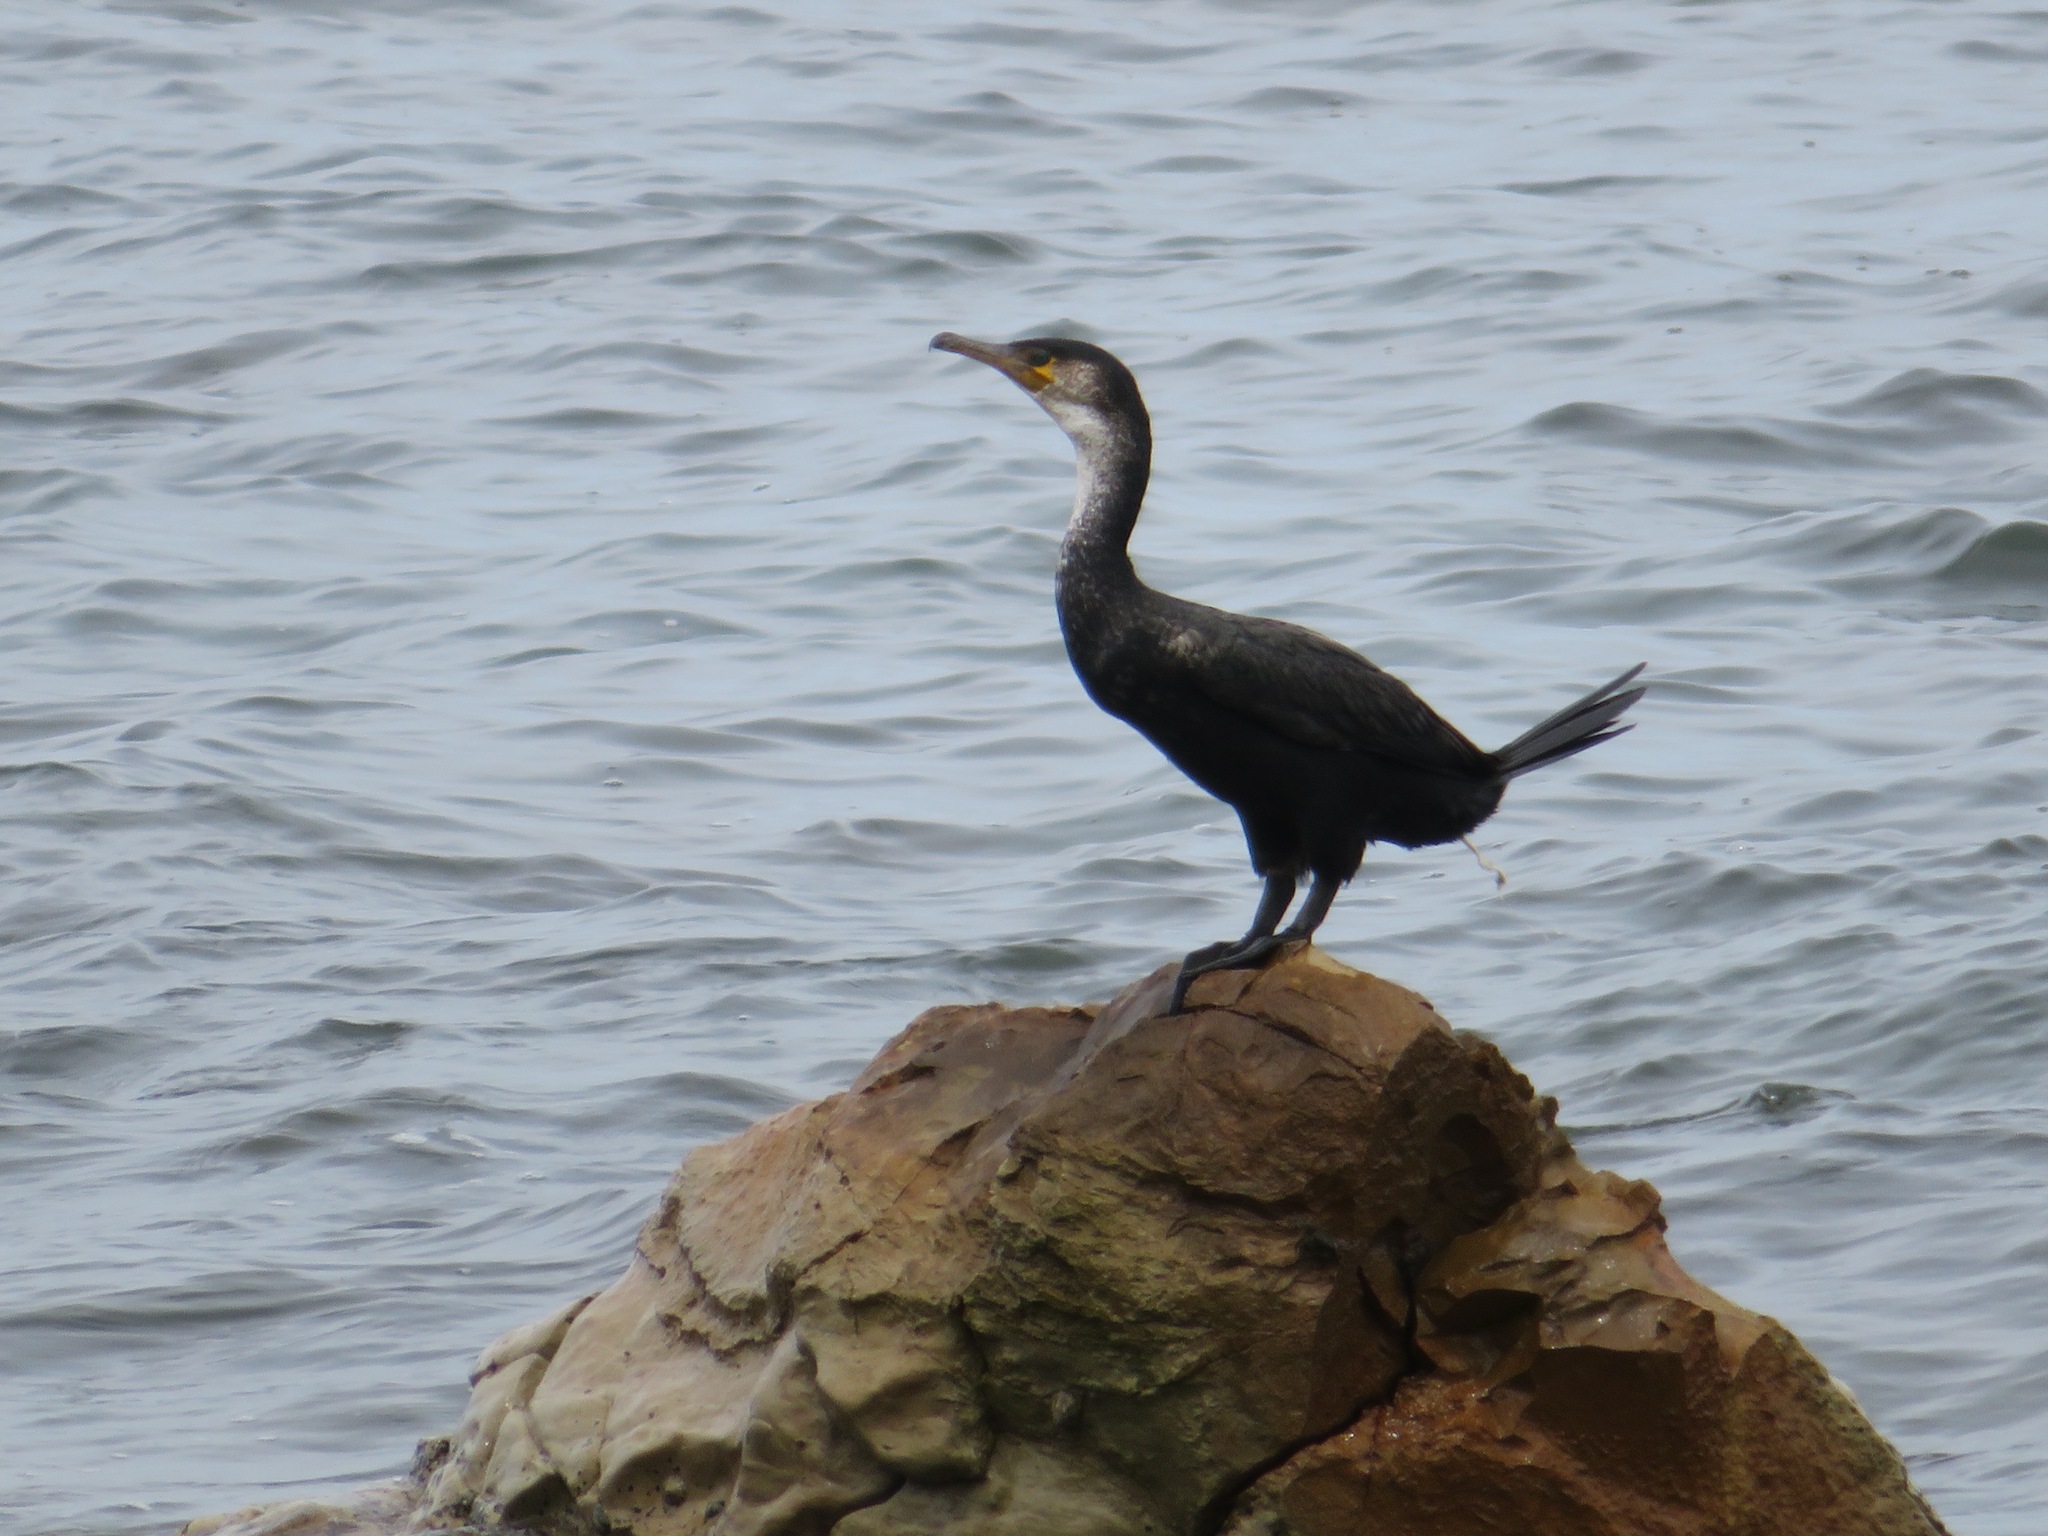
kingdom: Animalia
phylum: Chordata
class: Aves
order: Suliformes
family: Phalacrocoracidae
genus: Phalacrocorax
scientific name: Phalacrocorax capillatus
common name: Japanese cormorant
